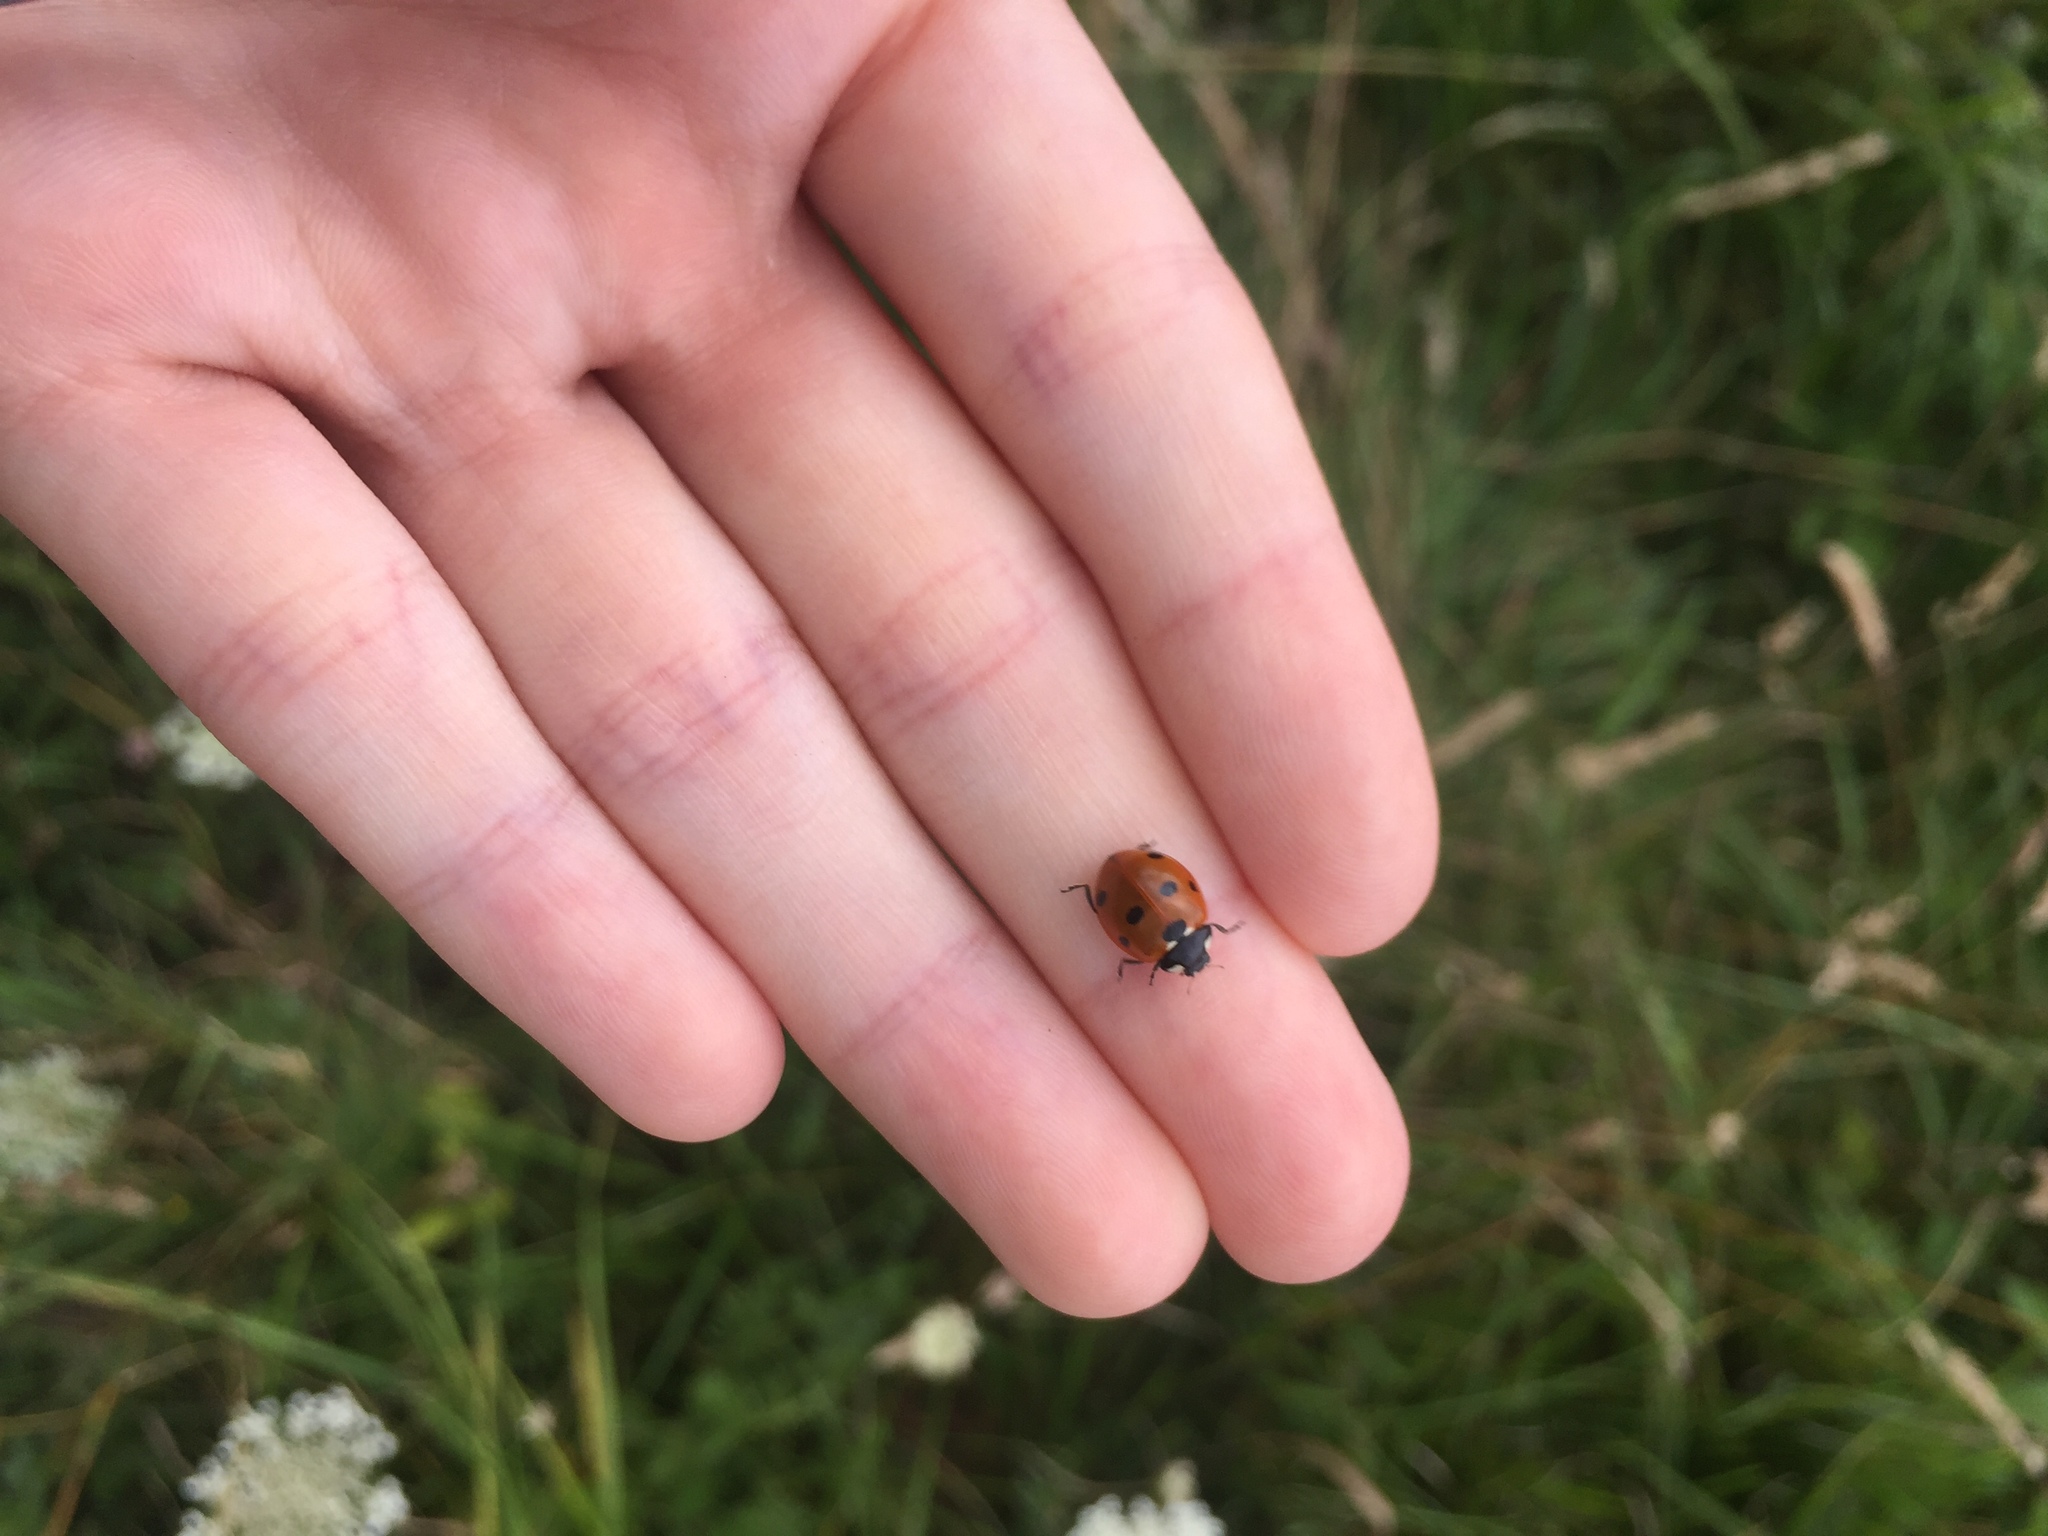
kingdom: Animalia
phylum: Arthropoda
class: Insecta
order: Coleoptera
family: Coccinellidae
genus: Coccinella
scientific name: Coccinella septempunctata
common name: Sevenspotted lady beetle
